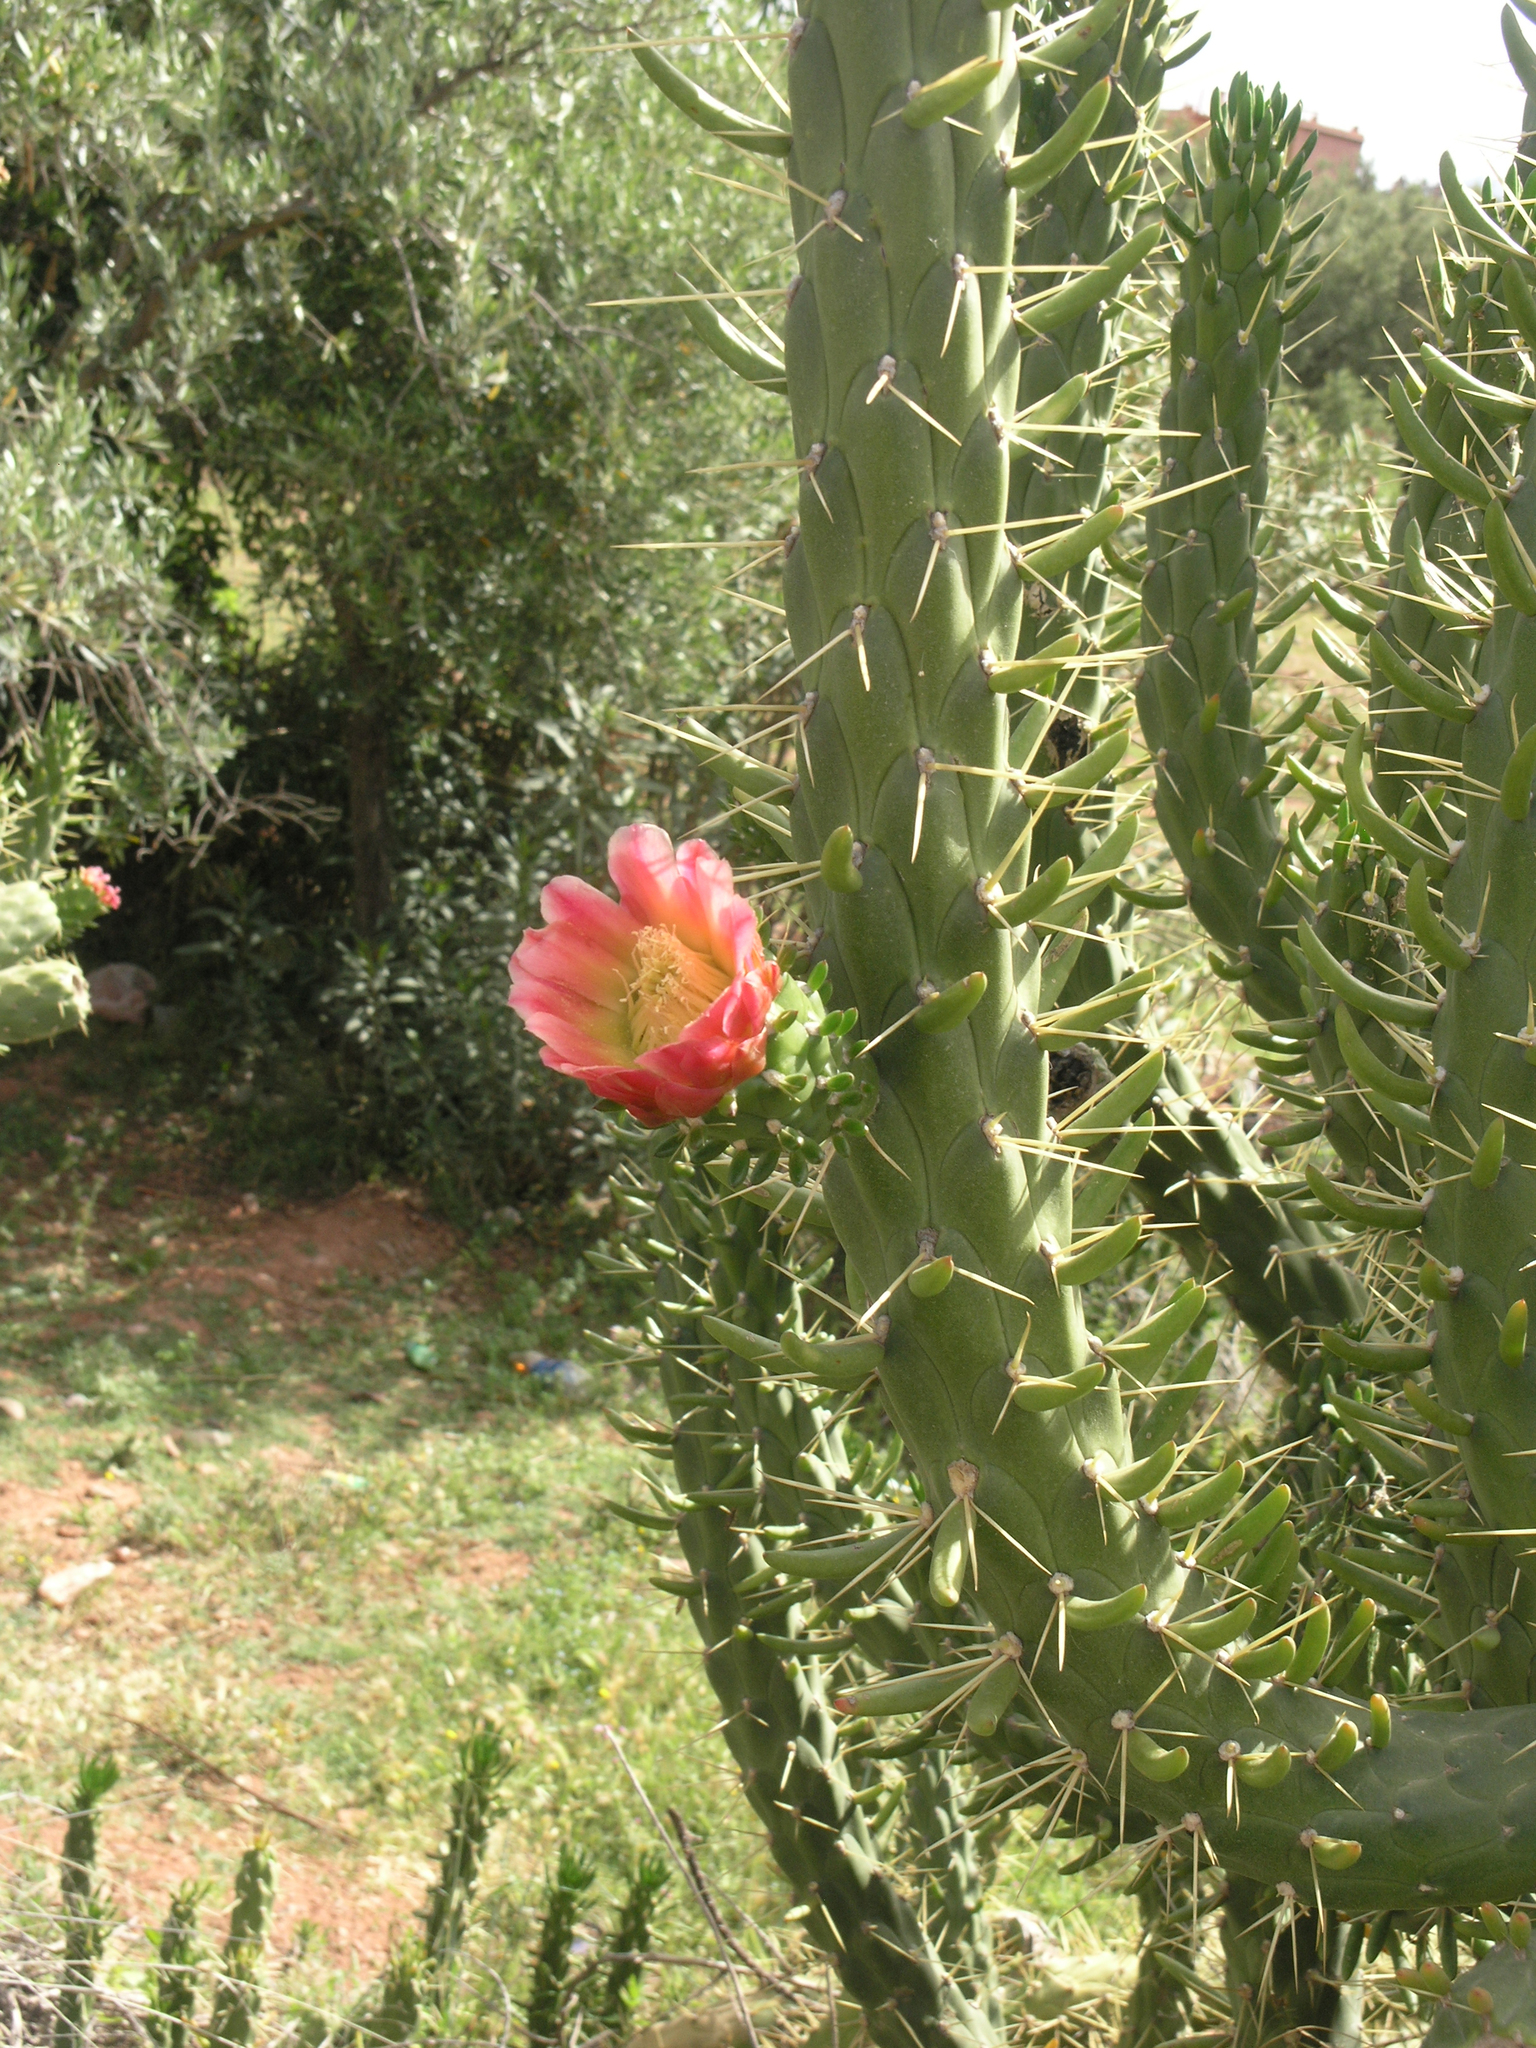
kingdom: Plantae
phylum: Tracheophyta
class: Magnoliopsida
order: Caryophyllales
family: Cactaceae
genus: Austrocylindropuntia
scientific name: Austrocylindropuntia subulata
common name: Eve's needle cactus
